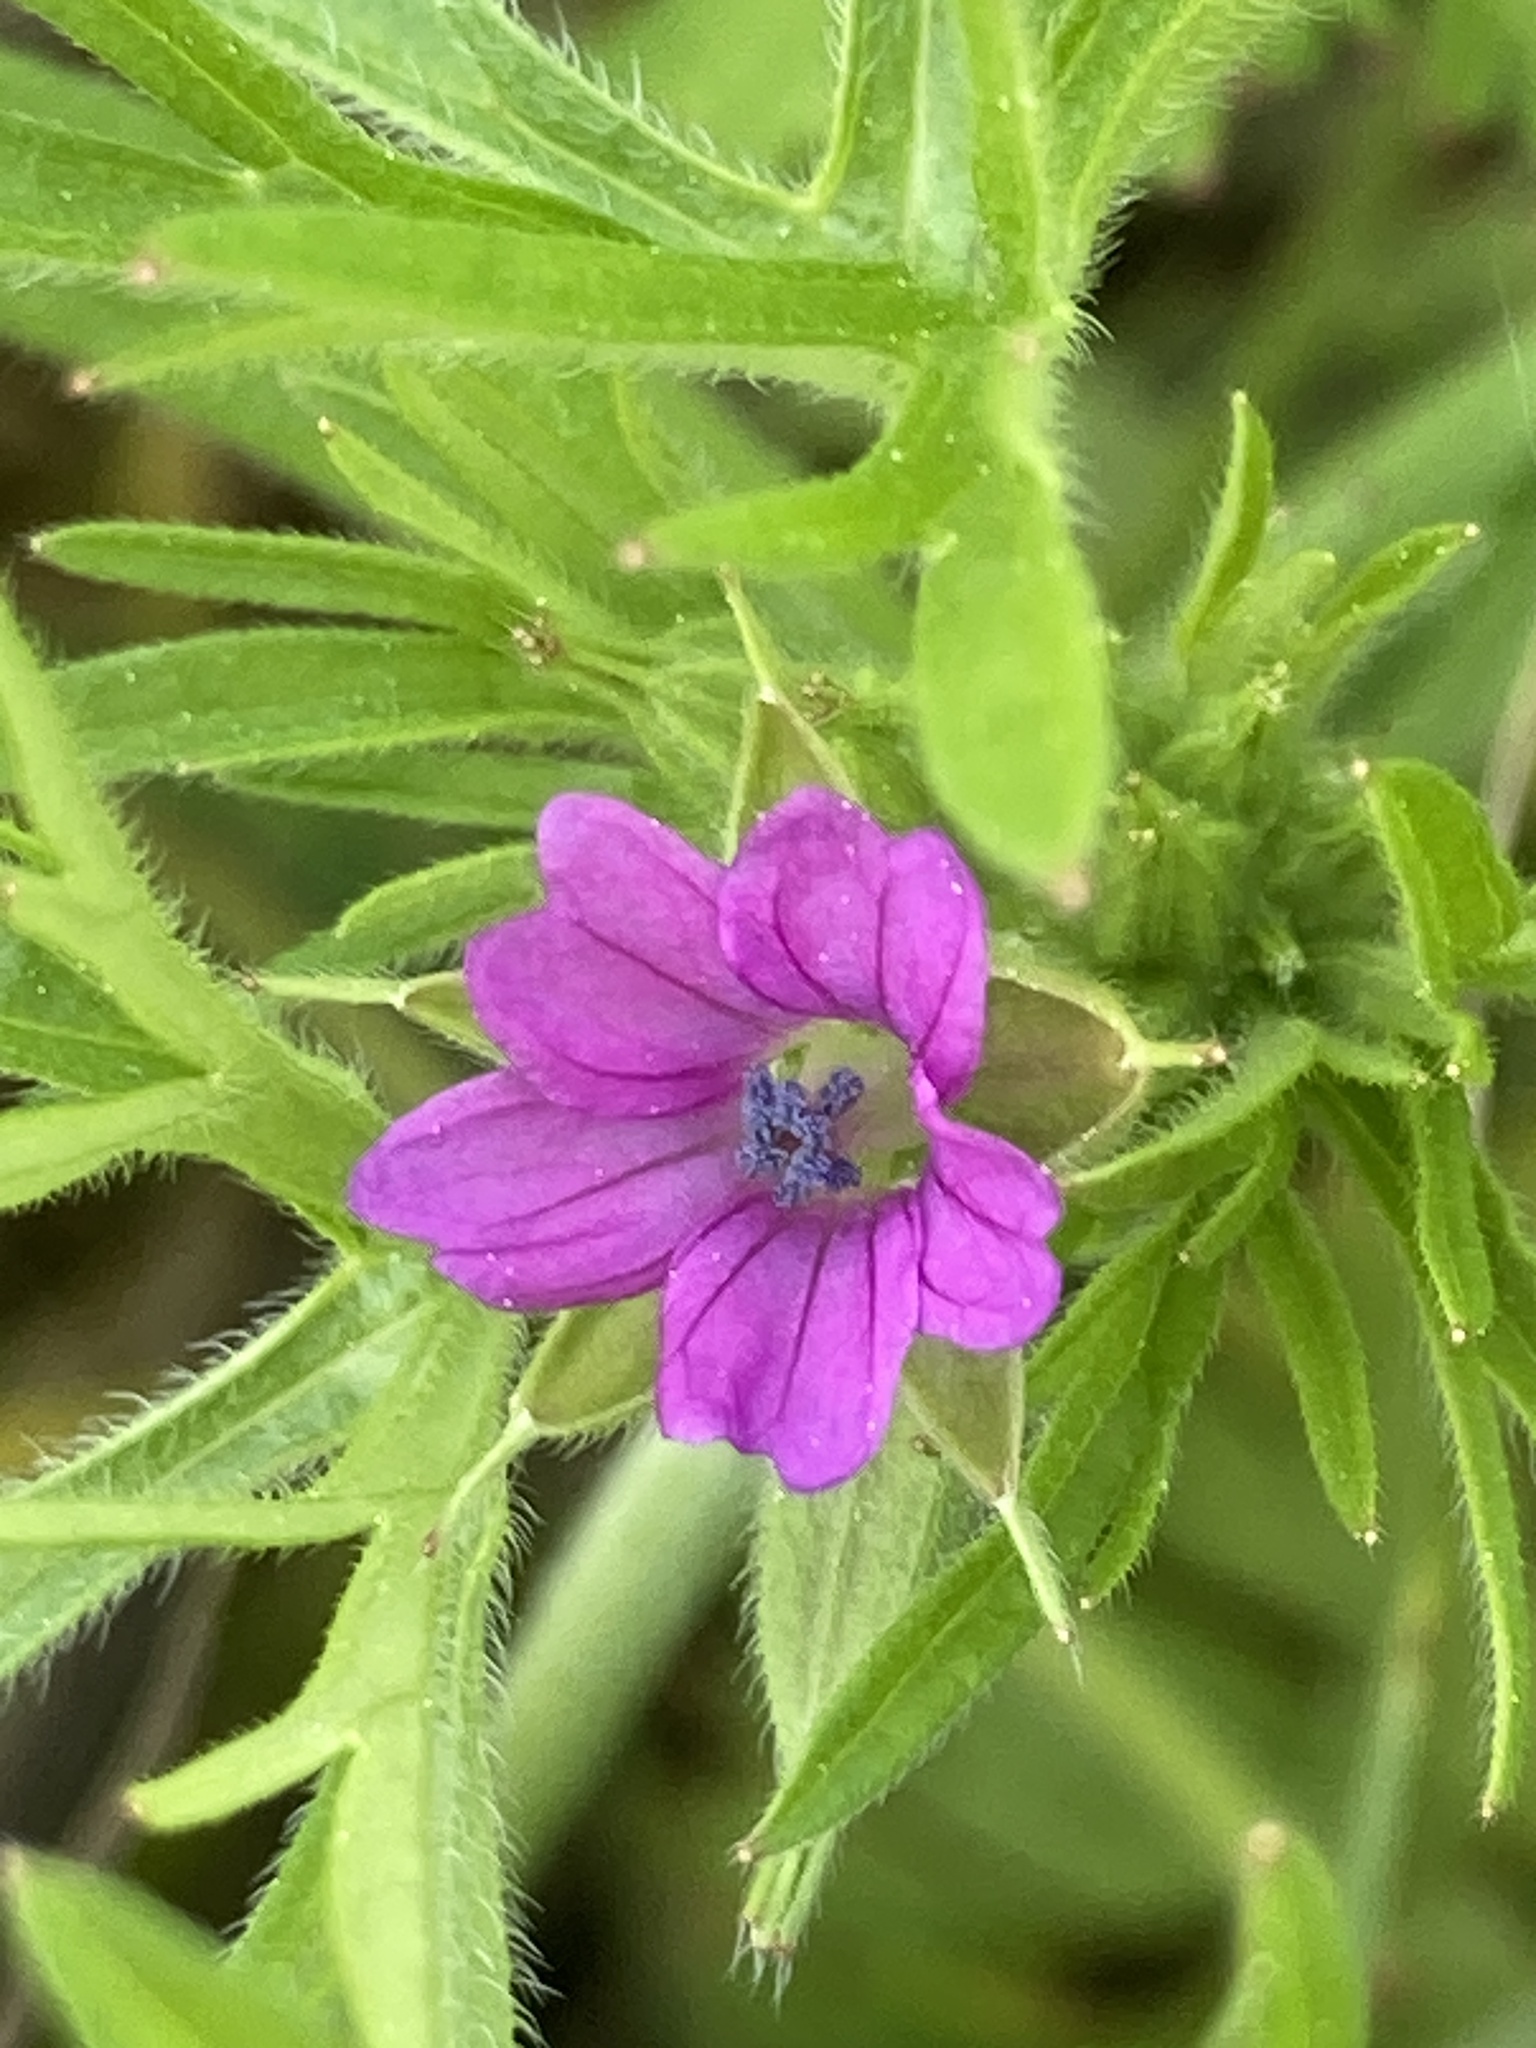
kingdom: Plantae
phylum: Tracheophyta
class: Magnoliopsida
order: Geraniales
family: Geraniaceae
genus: Geranium
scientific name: Geranium dissectum
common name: Cut-leaved crane's-bill
